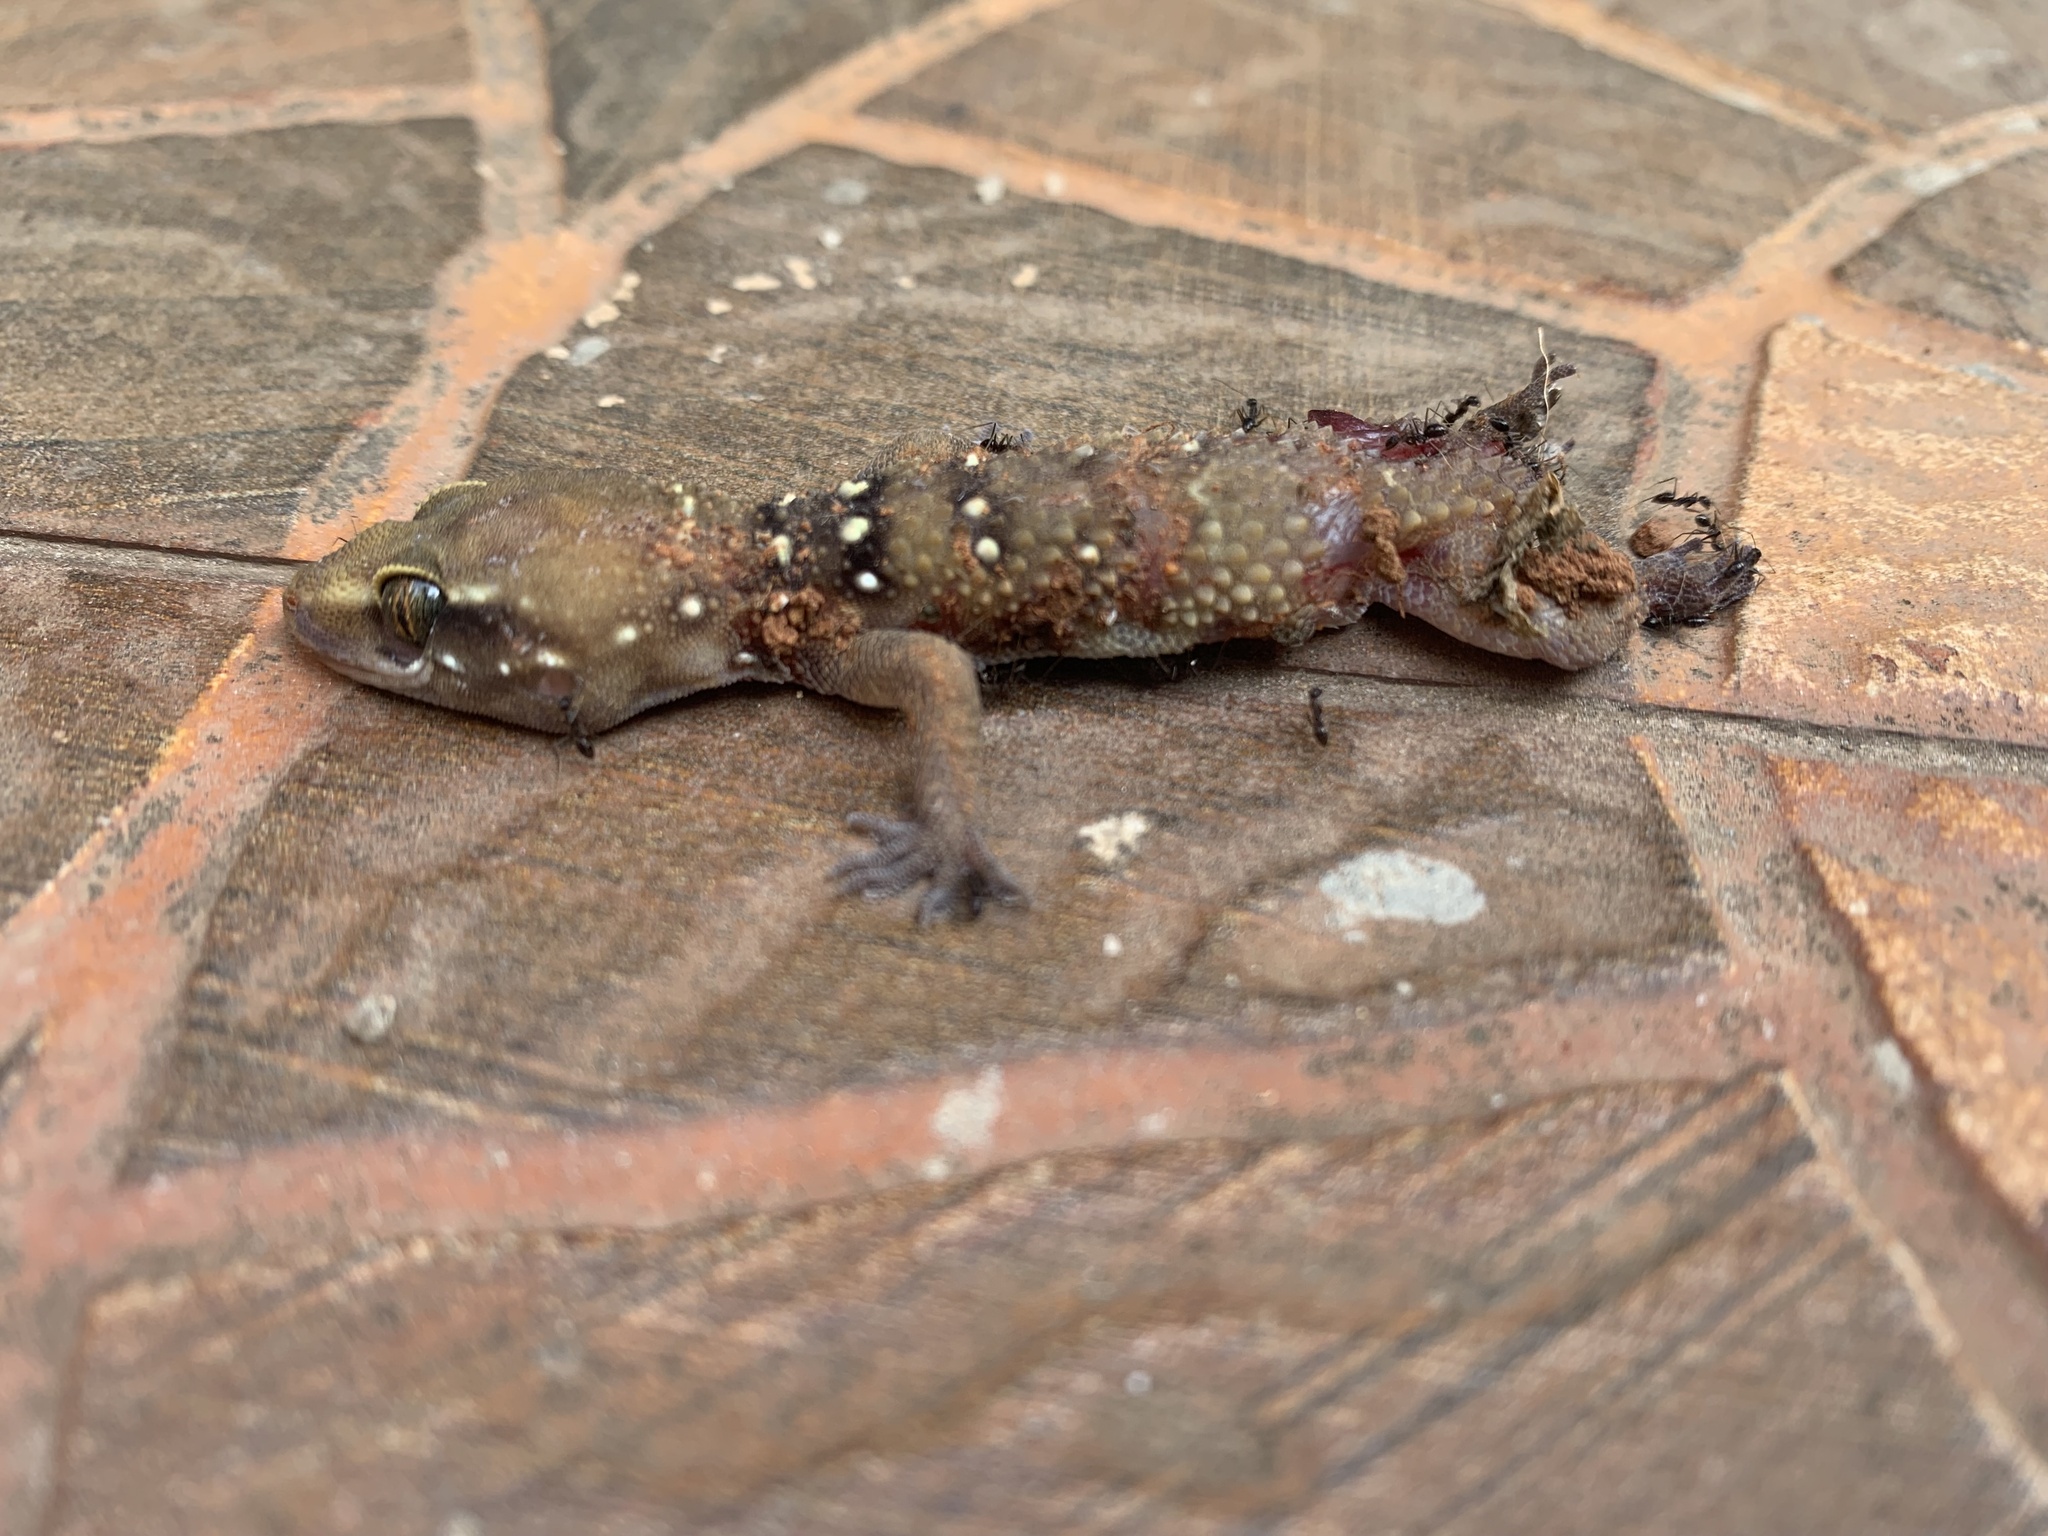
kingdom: Animalia
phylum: Chordata
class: Squamata
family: Gekkonidae
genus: Hemidactylus
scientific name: Hemidactylus whitakeri
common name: Whitaker’s termite hill gecko
